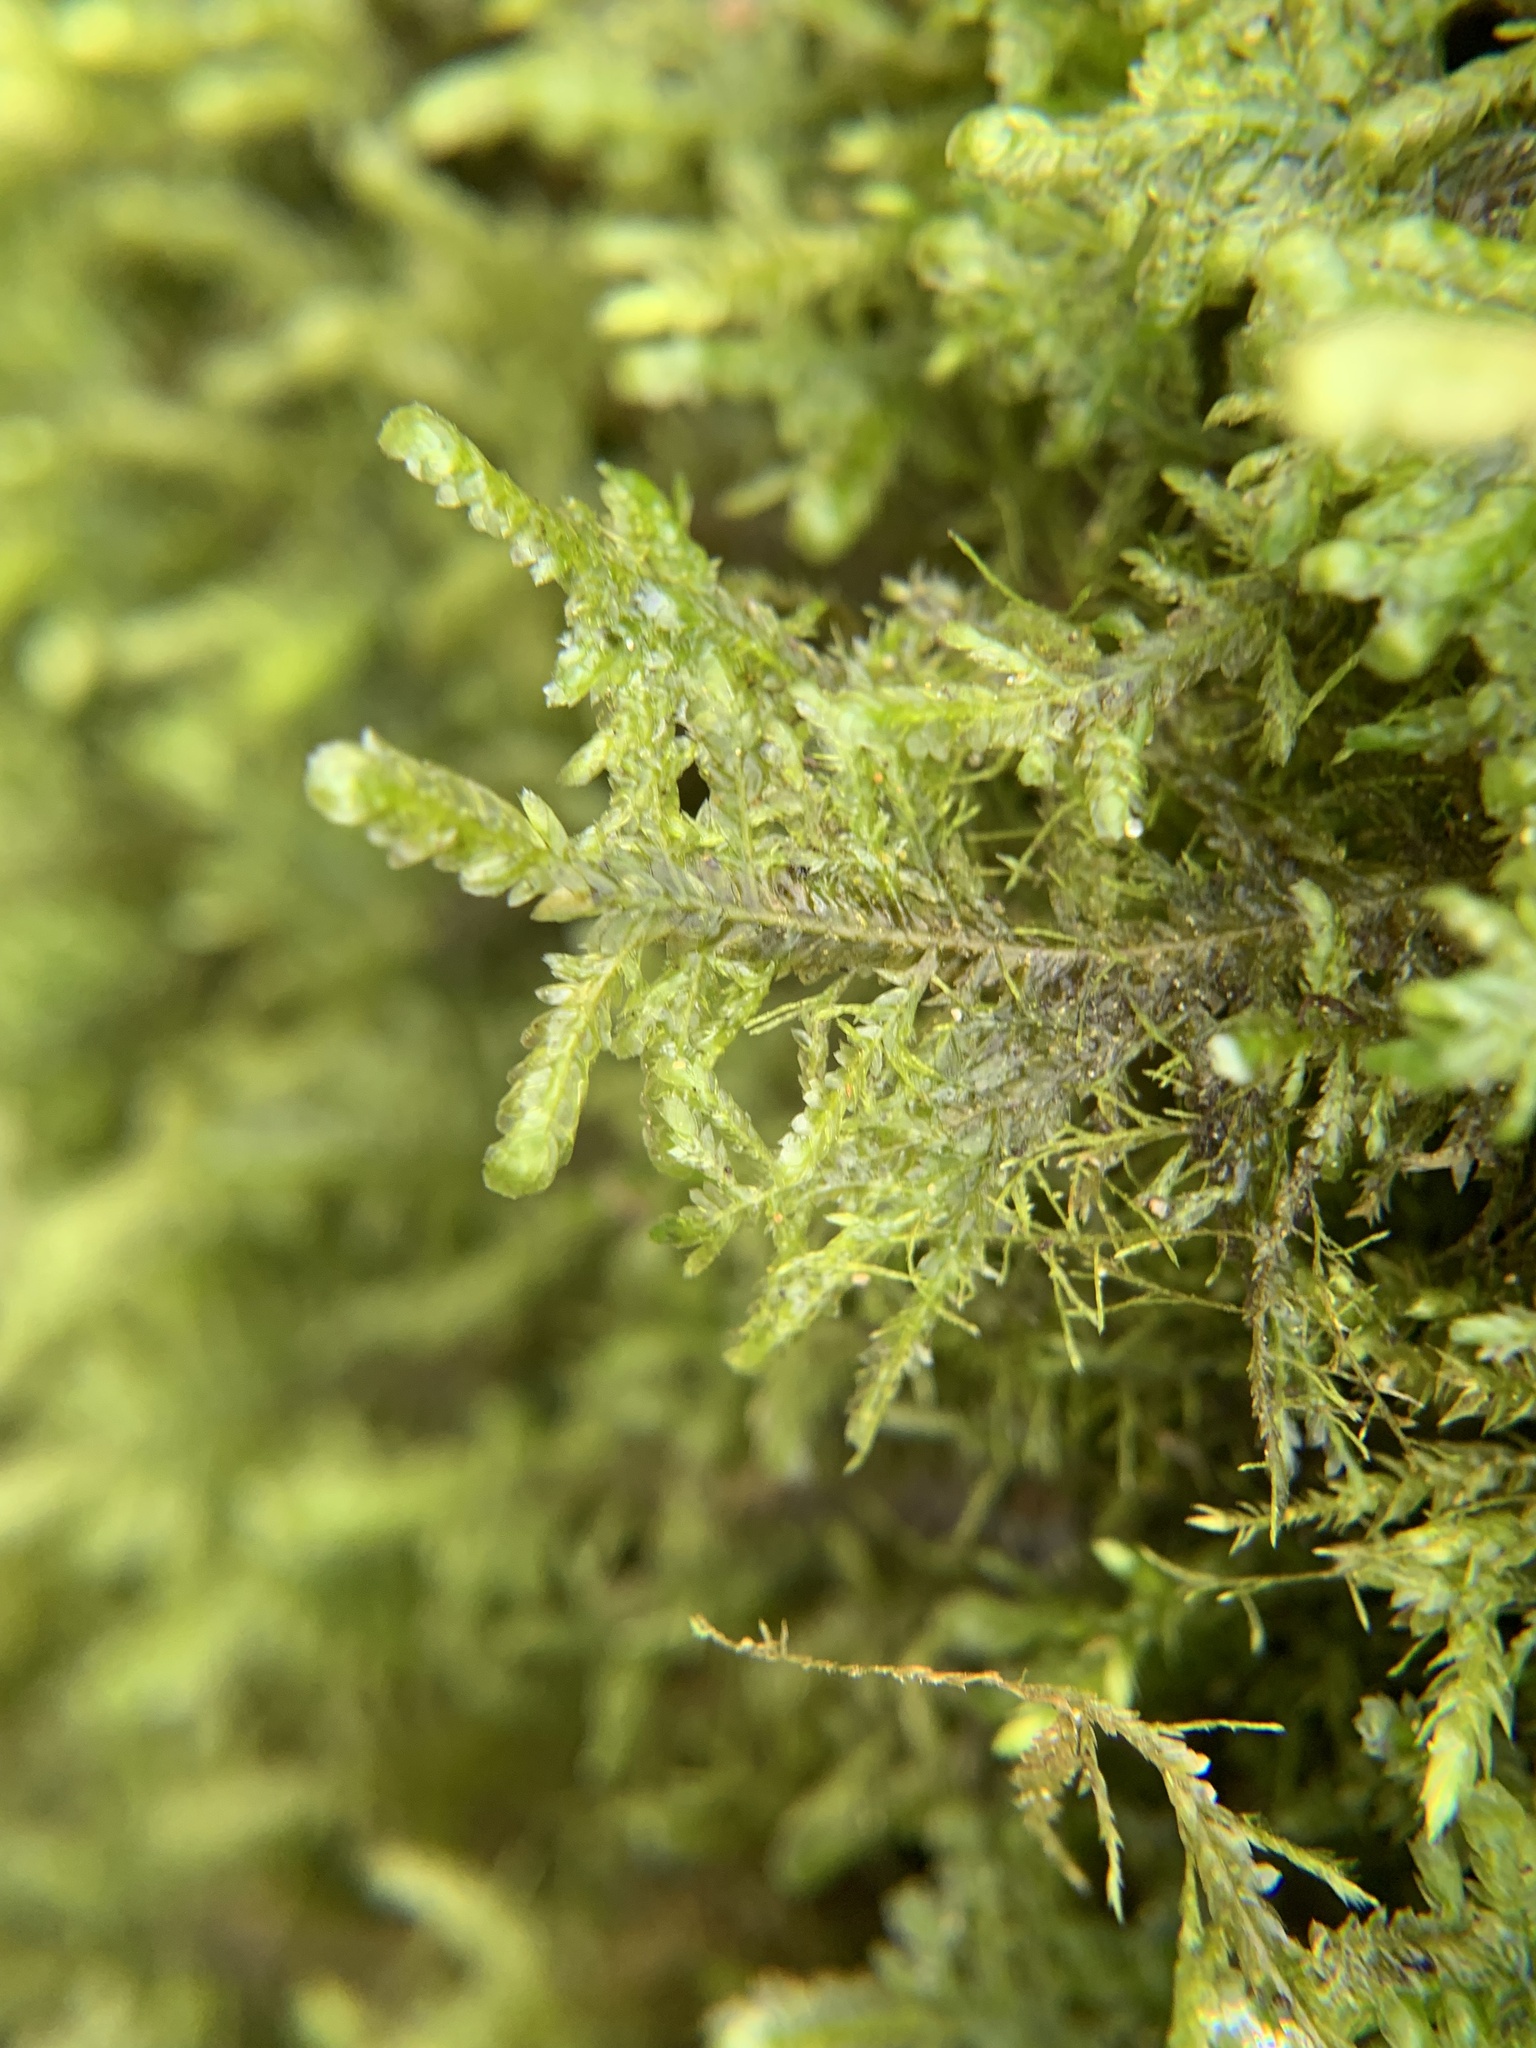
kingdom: Plantae
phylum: Bryophyta
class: Bryopsida
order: Hypnales
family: Neckeraceae
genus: Alleniella
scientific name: Alleniella complanata
